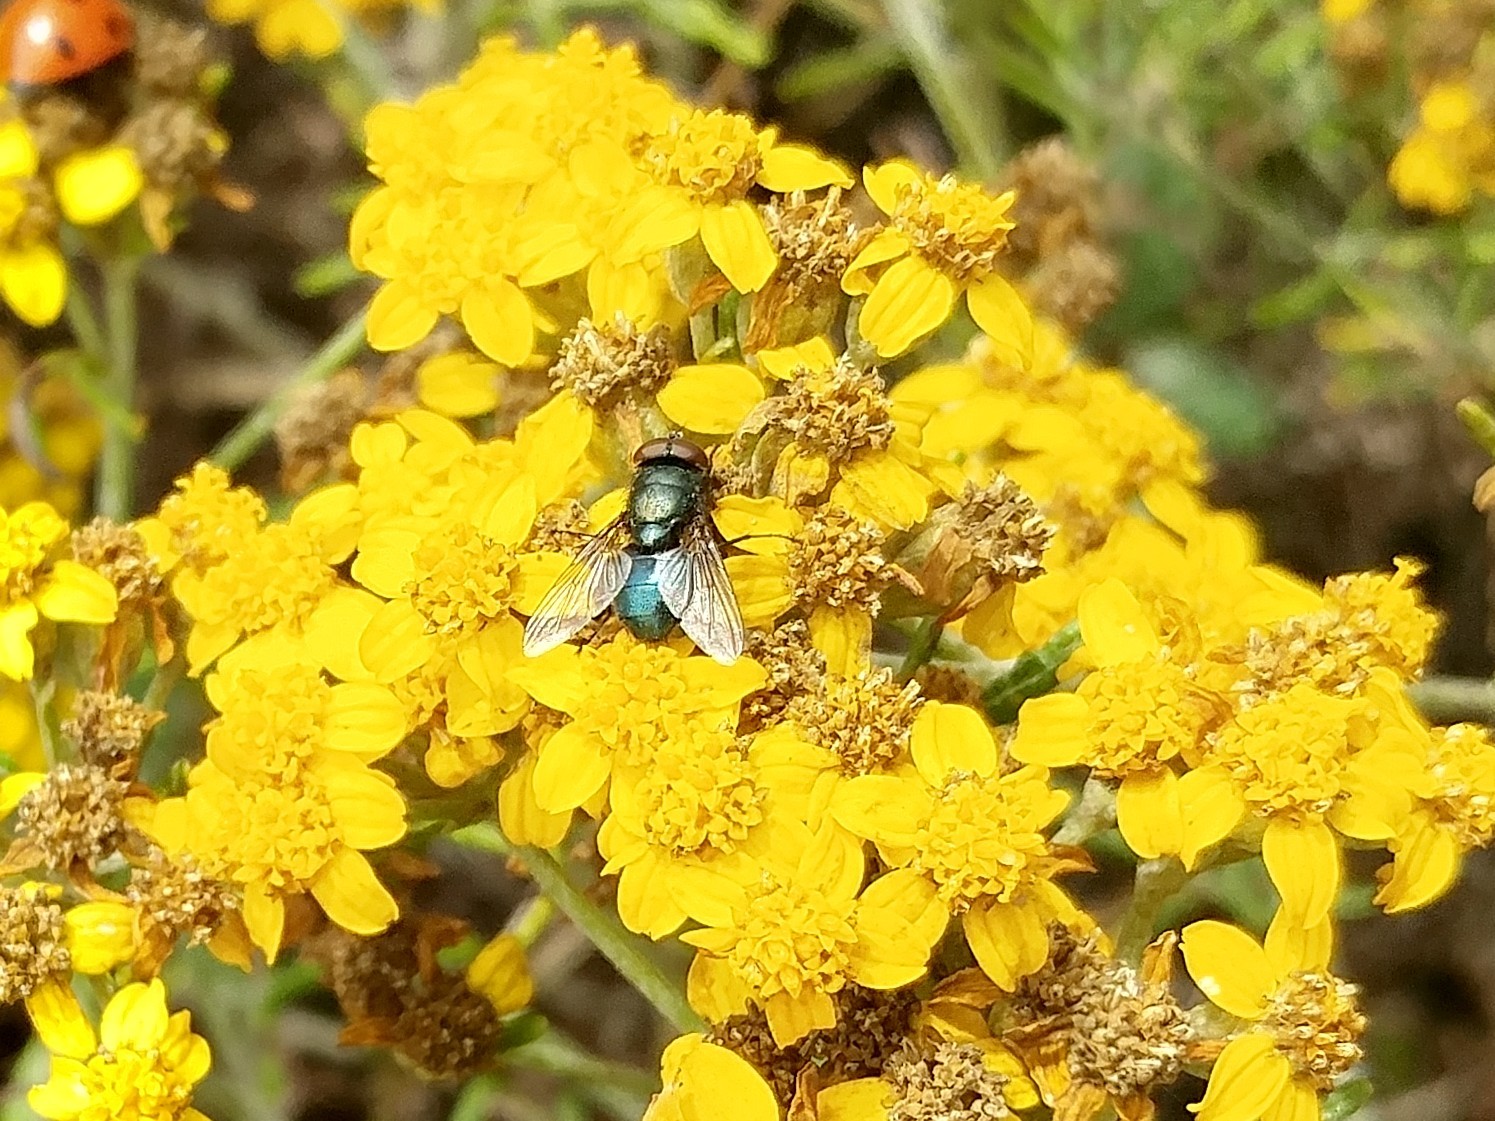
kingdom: Animalia
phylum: Arthropoda
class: Insecta
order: Diptera
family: Calliphoridae
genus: Phormia
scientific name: Phormia regina
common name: Black blow fly
